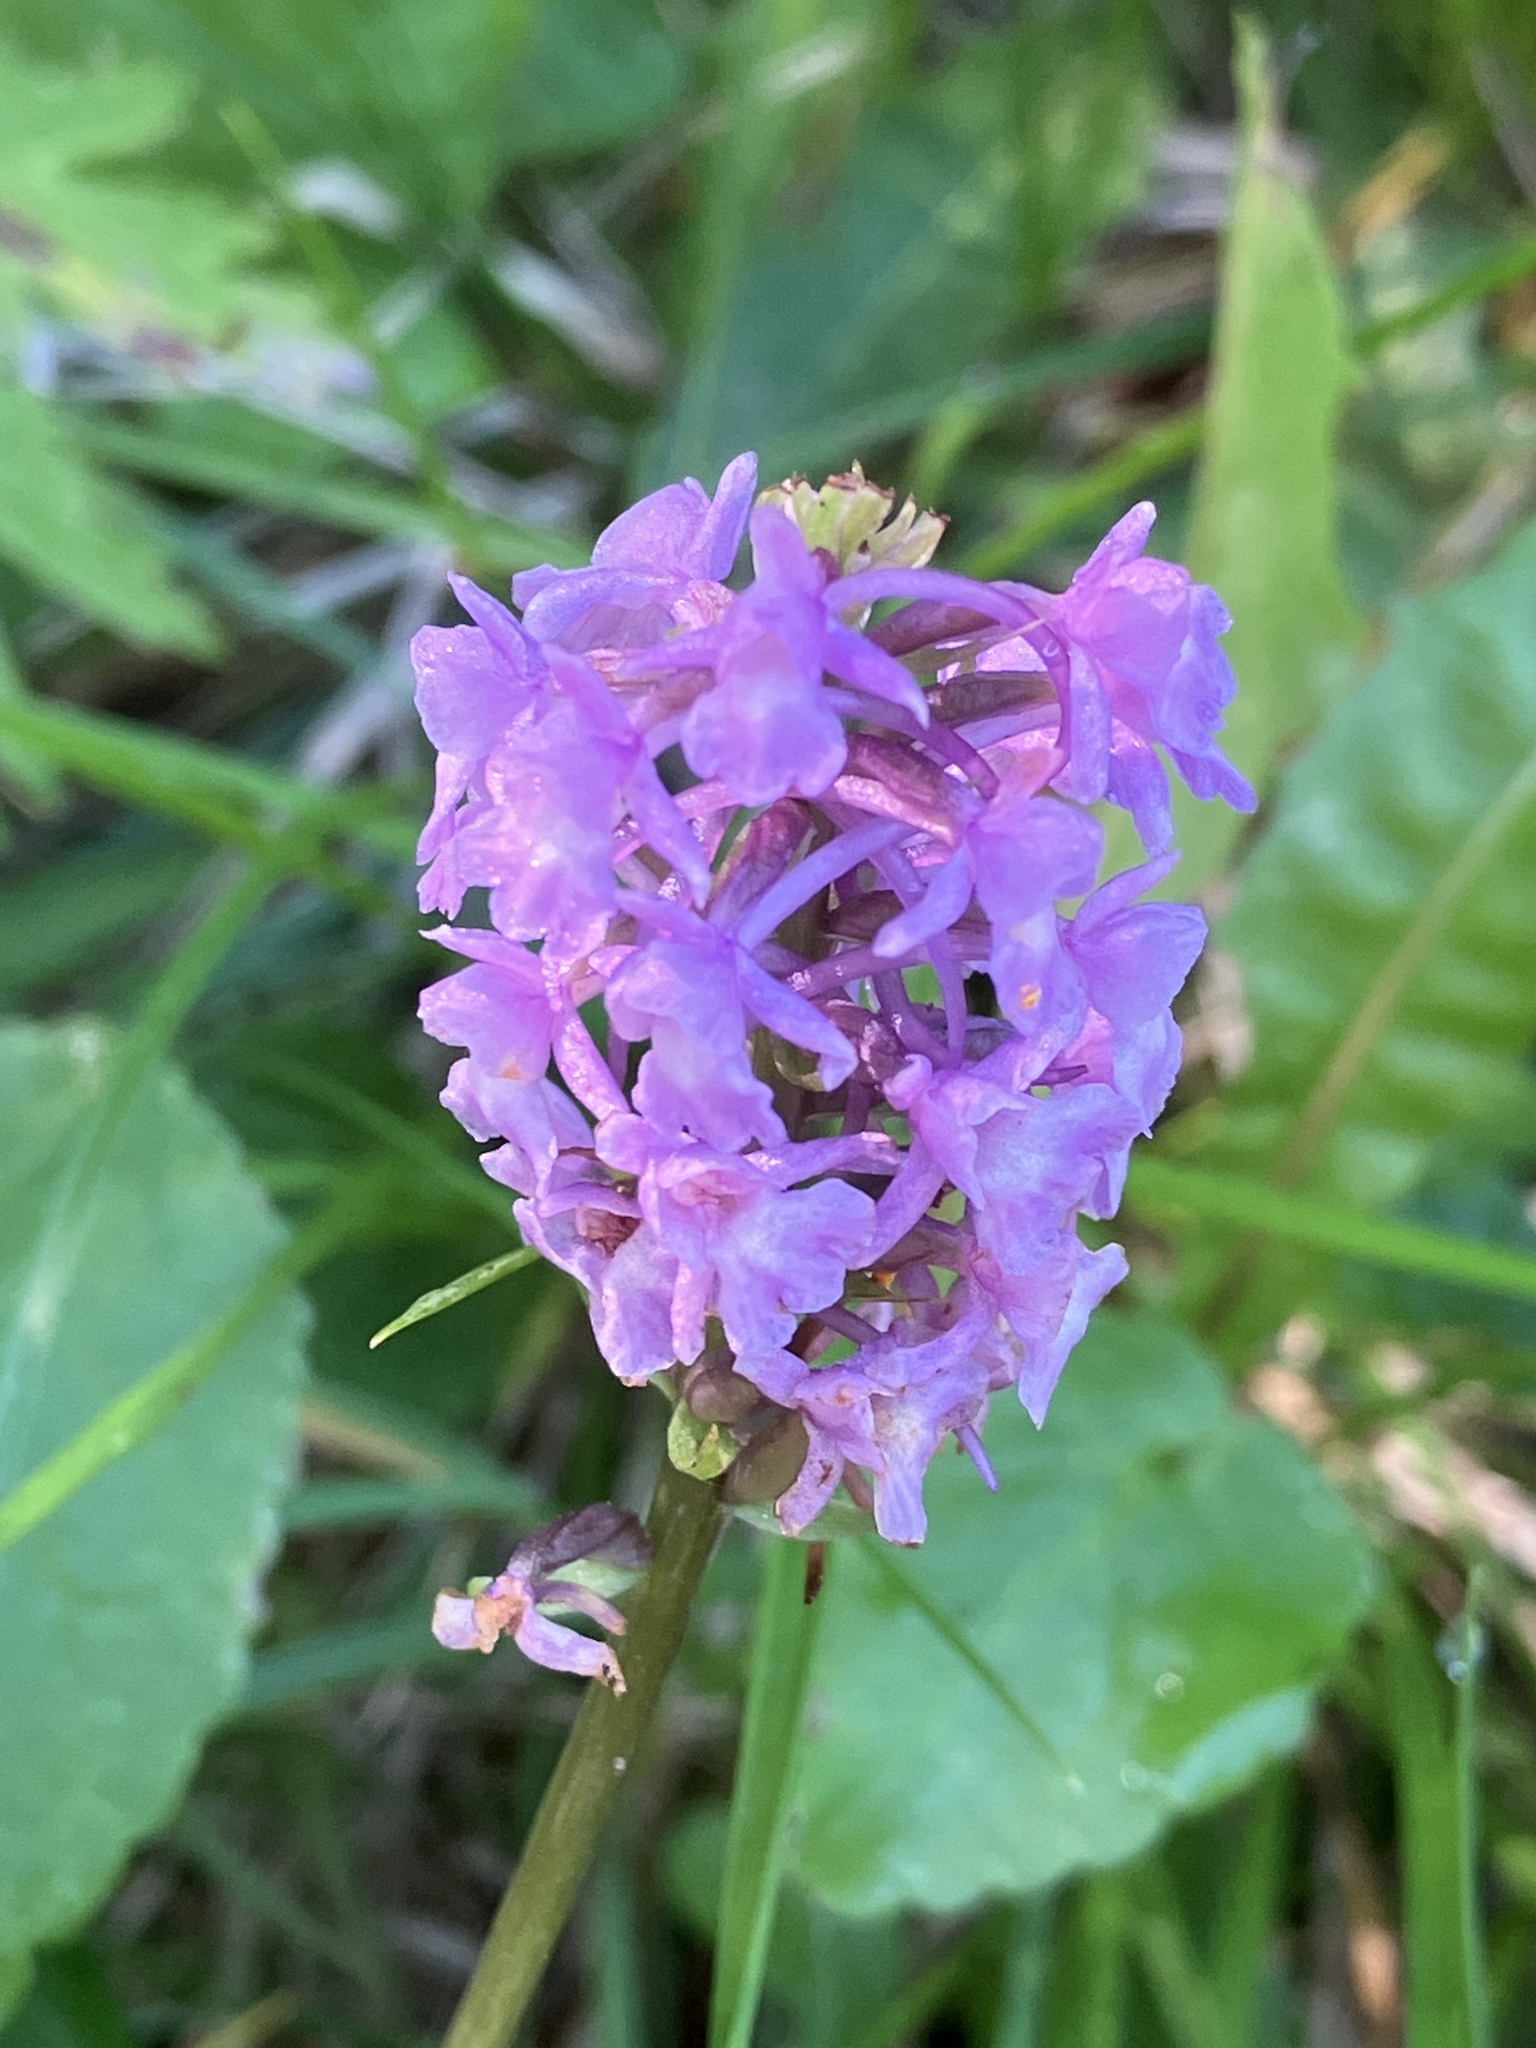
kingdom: Plantae
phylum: Tracheophyta
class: Liliopsida
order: Asparagales
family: Orchidaceae
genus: Gymnadenia
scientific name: Gymnadenia conopsea
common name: Fragrant orchid
